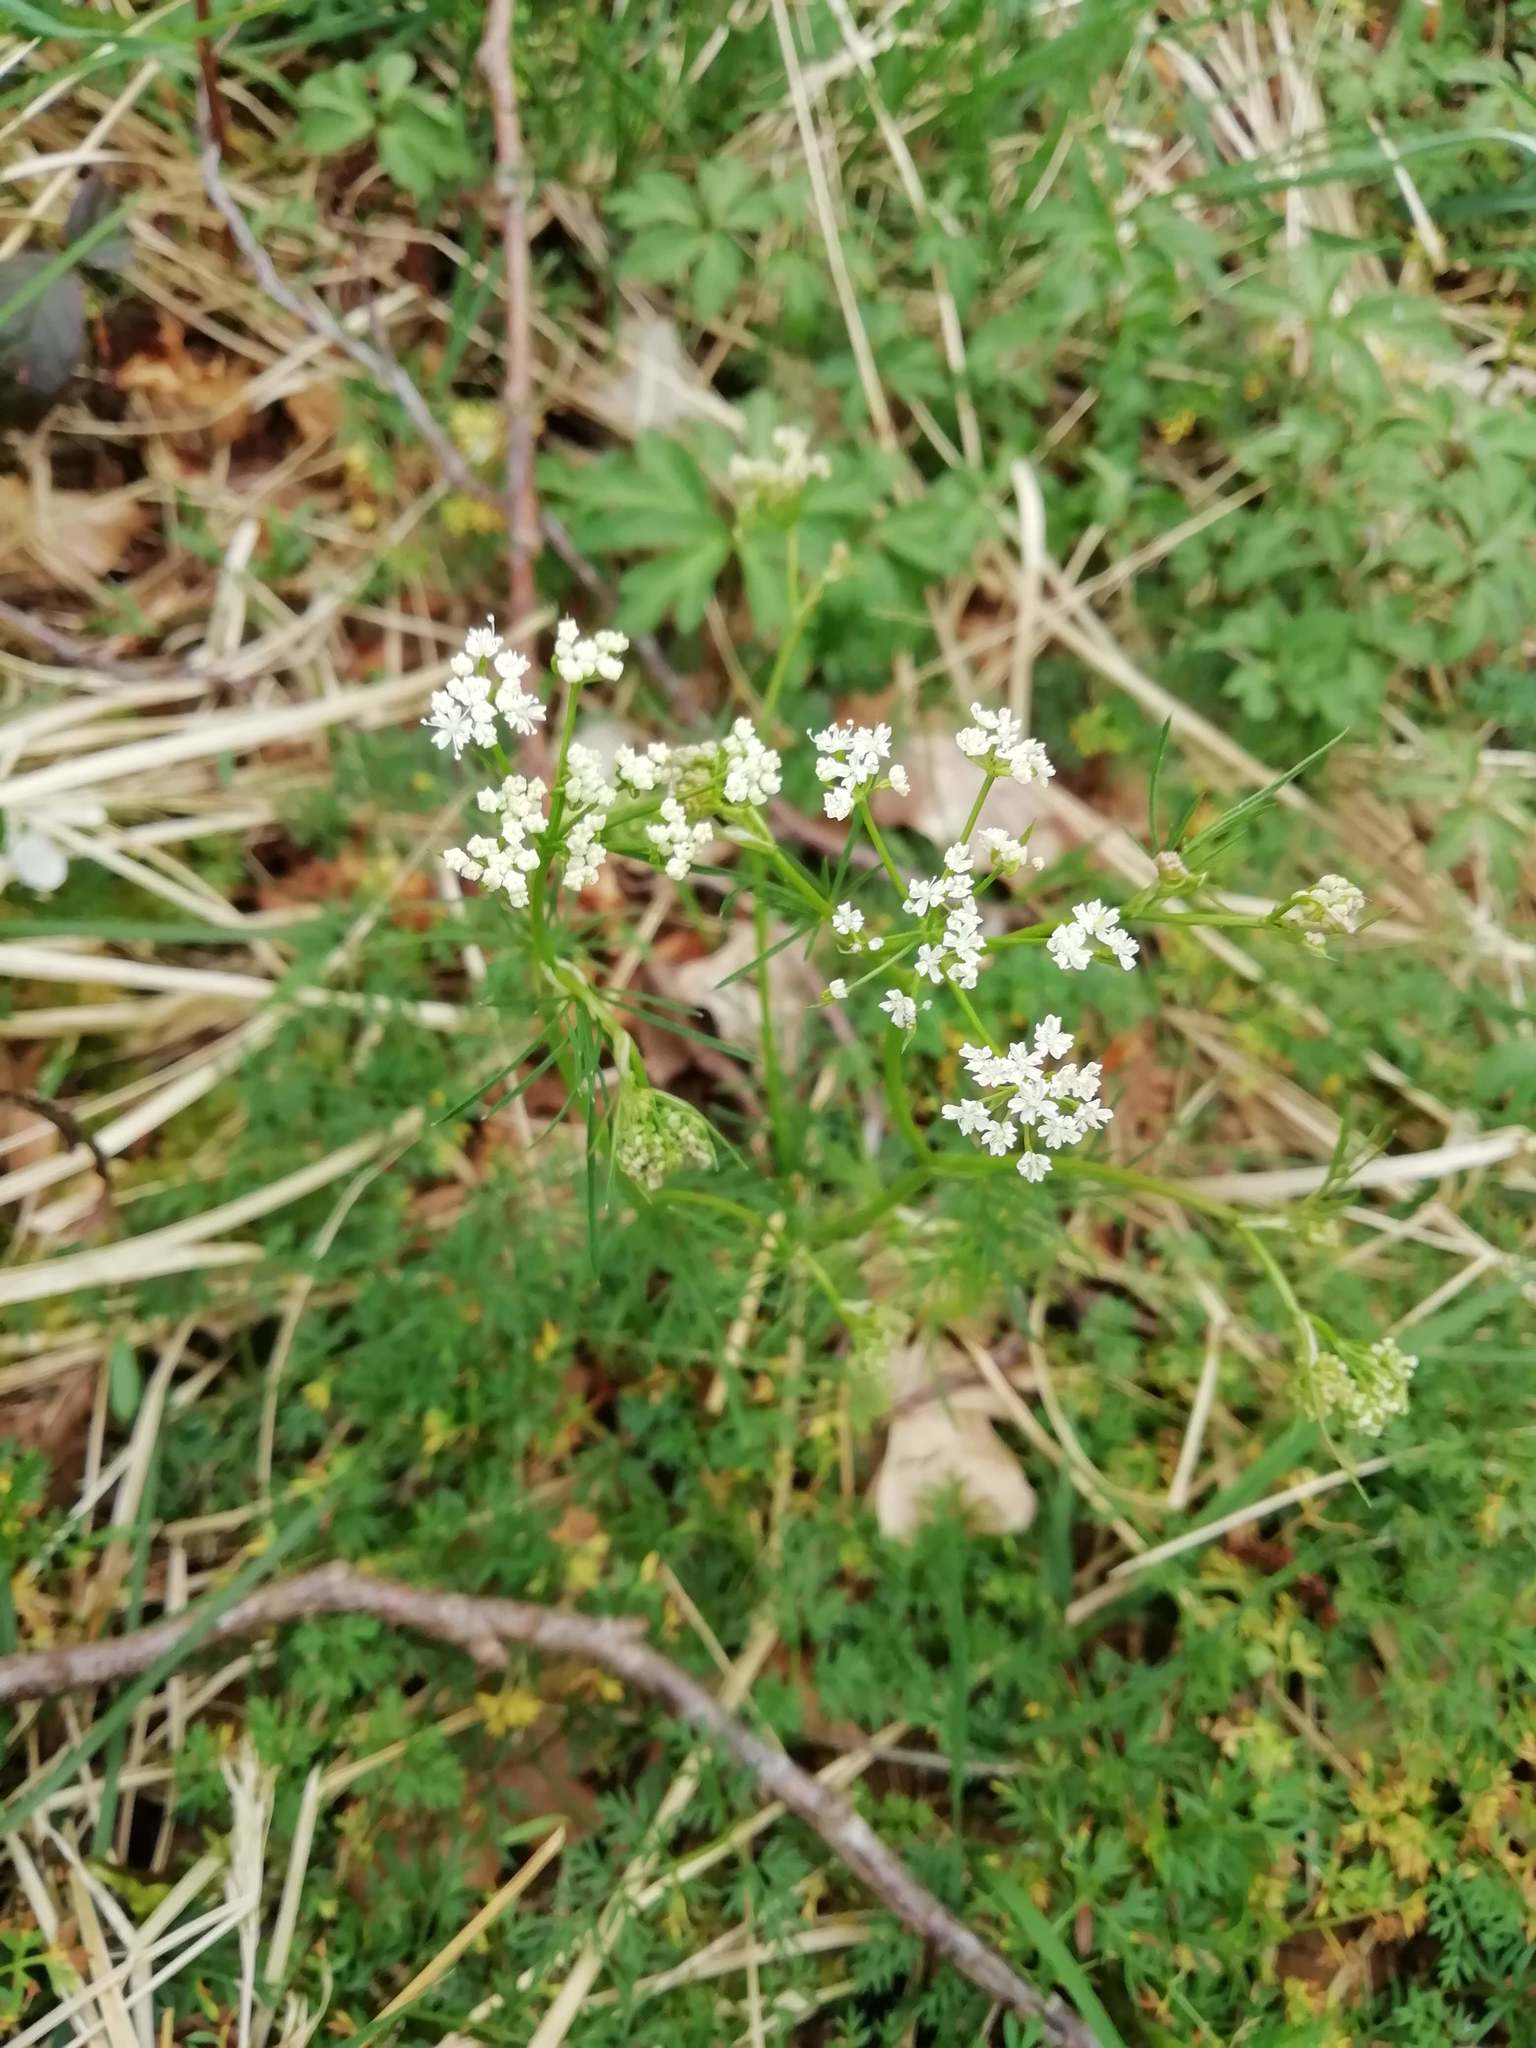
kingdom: Plantae
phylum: Tracheophyta
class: Magnoliopsida
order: Apiales
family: Apiaceae
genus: Conopodium
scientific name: Conopodium majus
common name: Pignut
